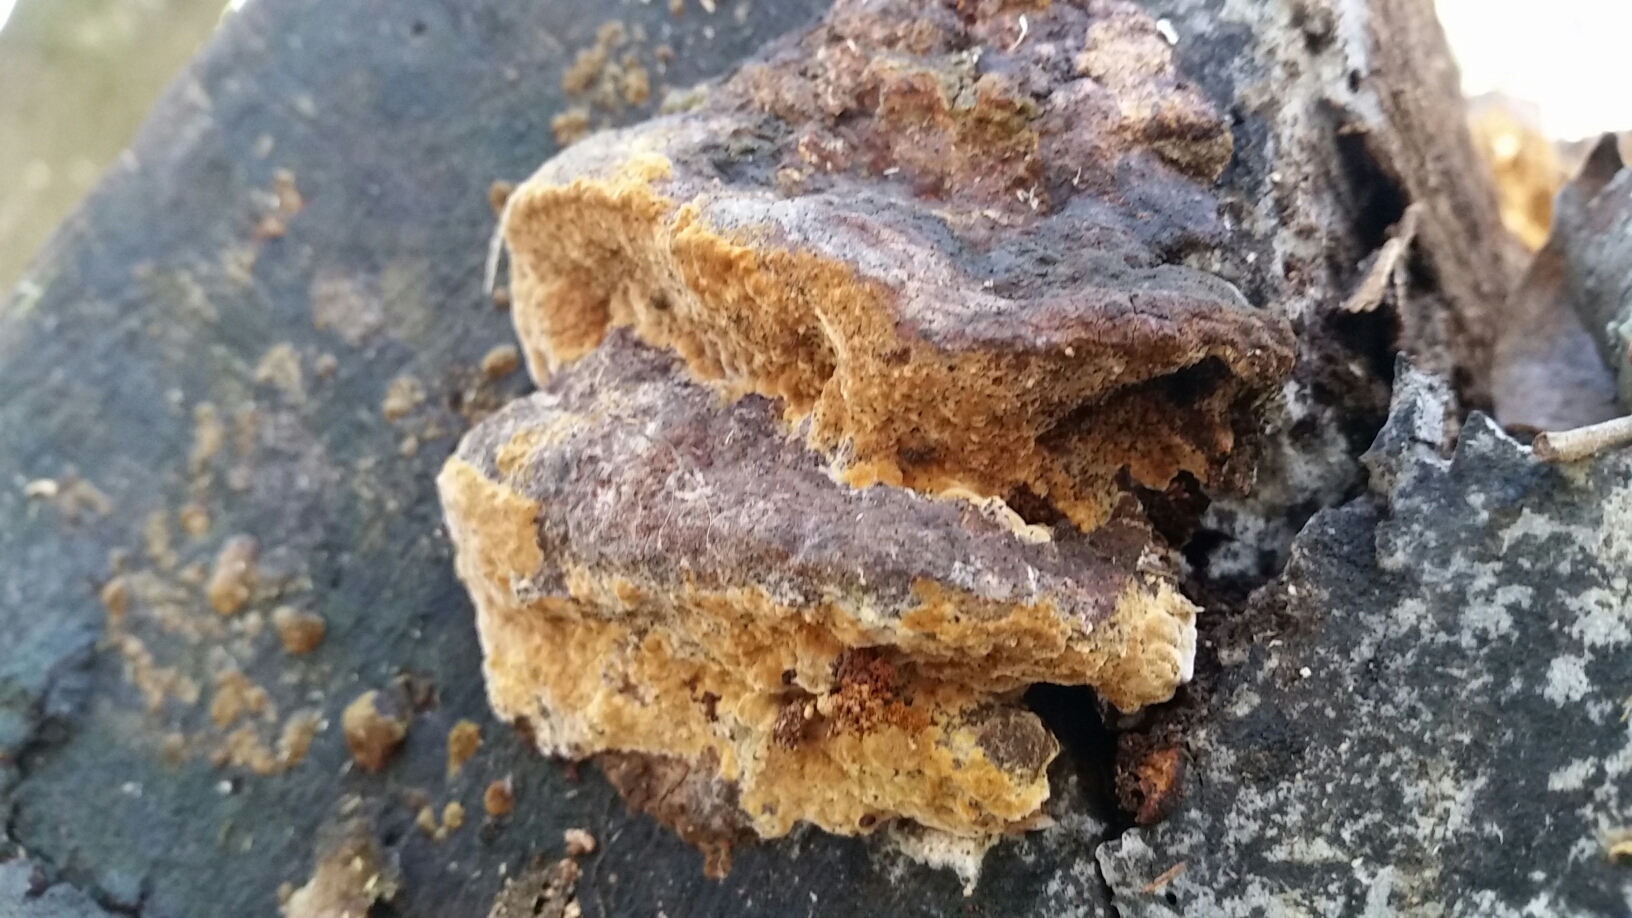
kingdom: Fungi
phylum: Basidiomycota
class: Agaricomycetes
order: Hymenochaetales
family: Hymenochaetaceae
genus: Phellinus
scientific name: Phellinus gilvus
